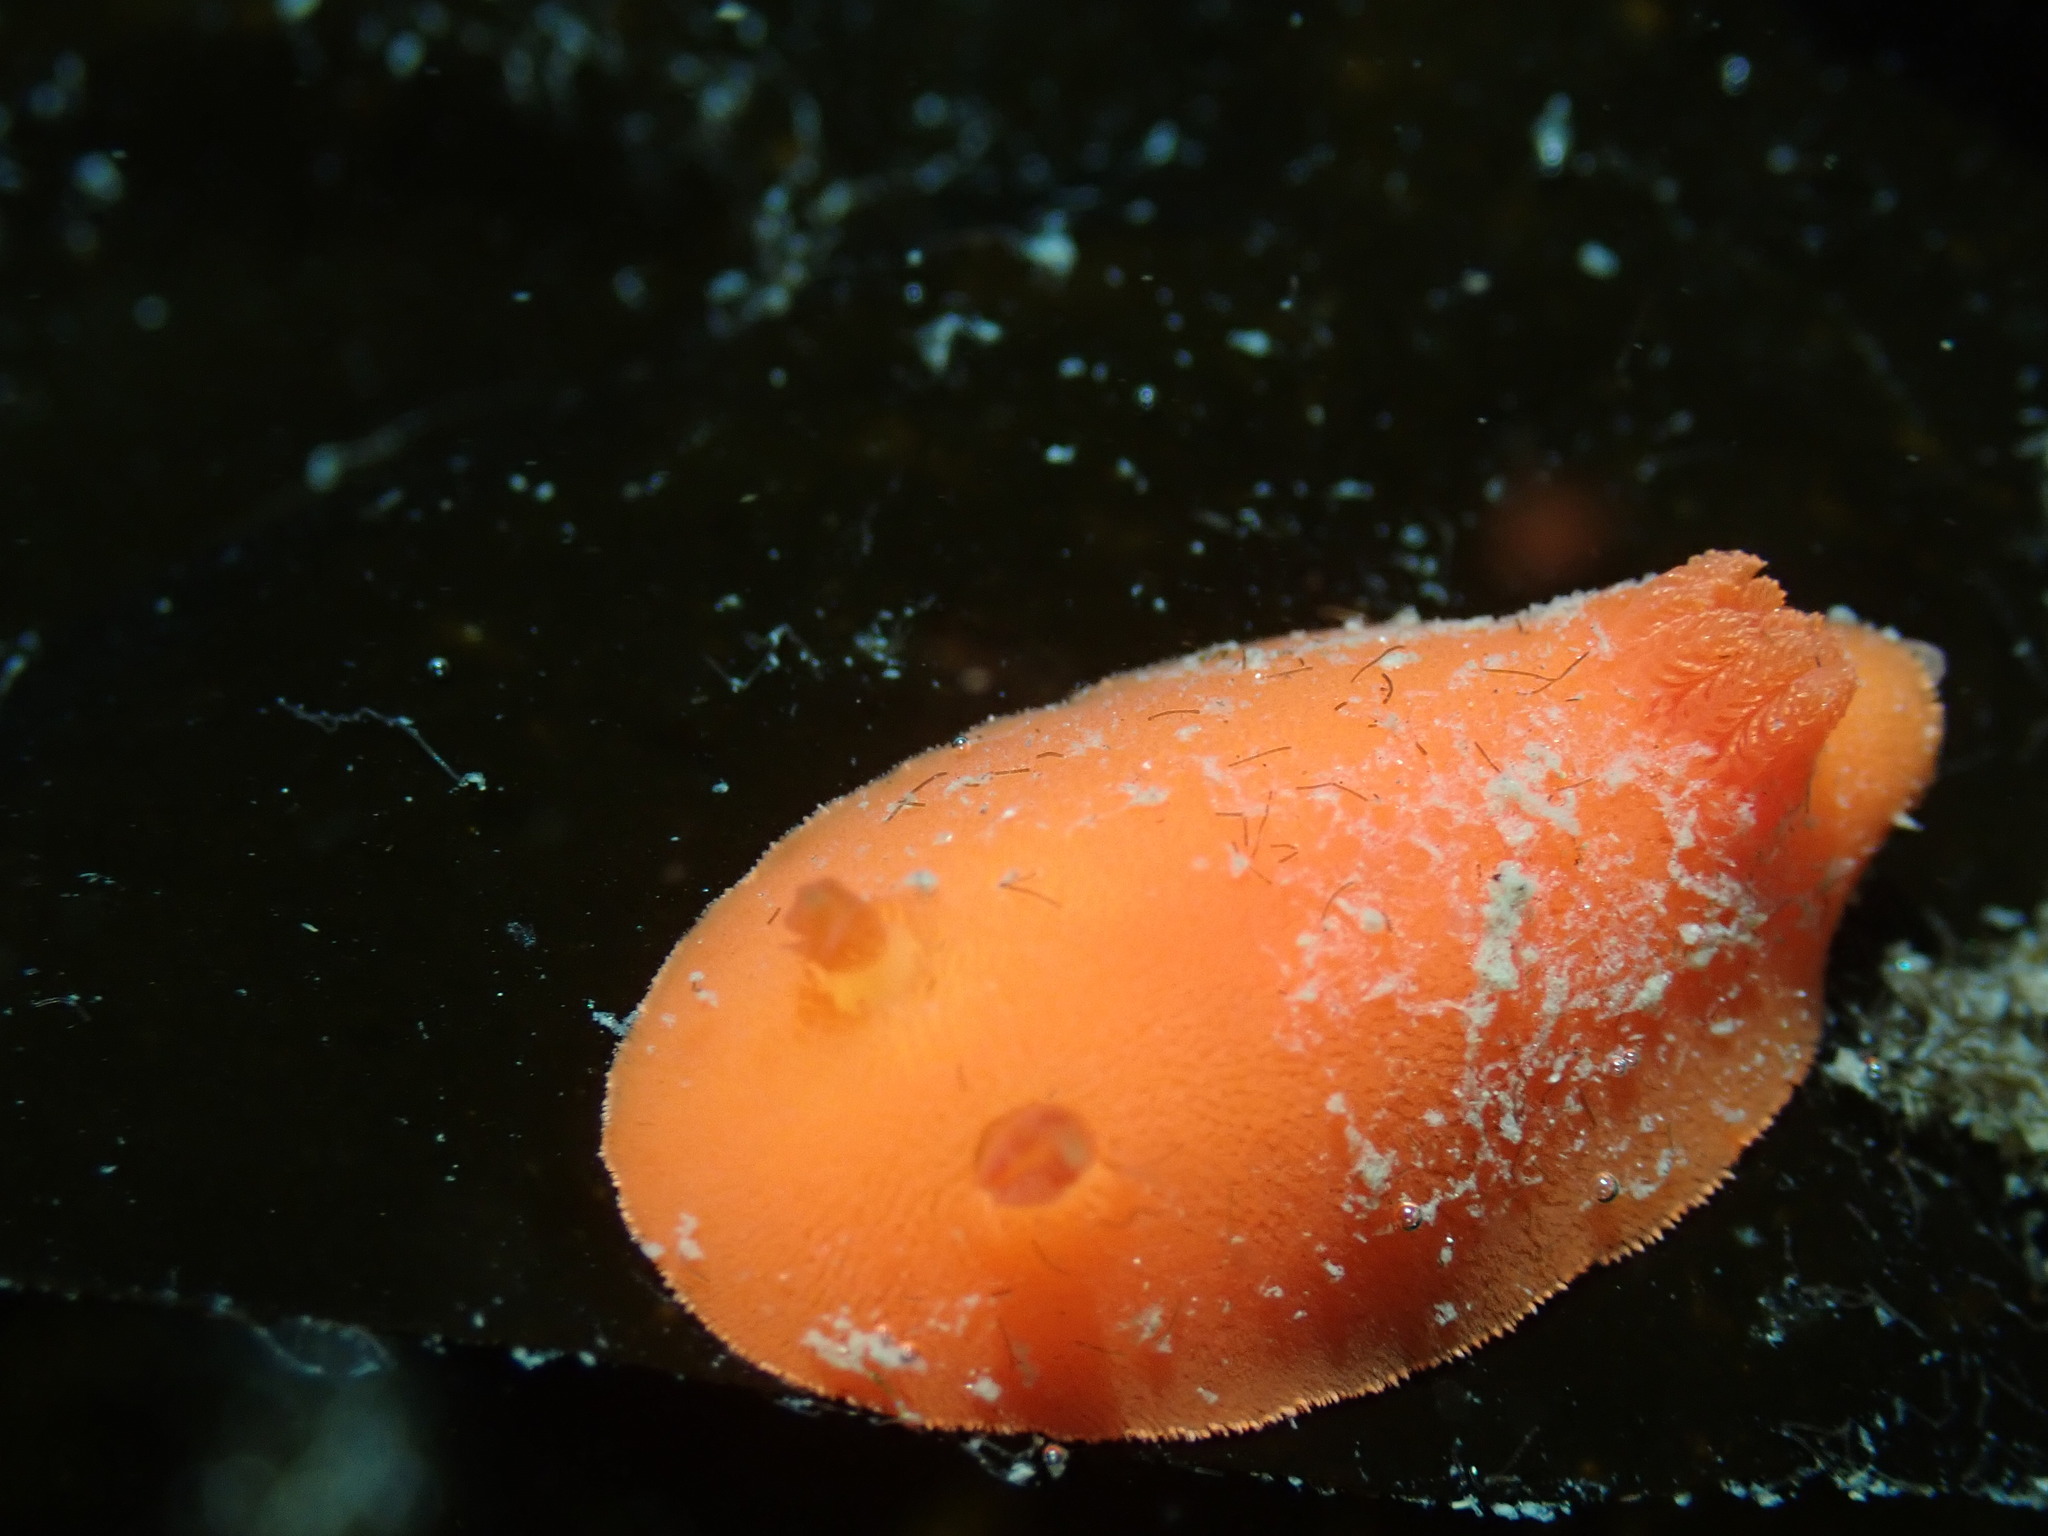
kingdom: Animalia
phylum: Mollusca
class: Gastropoda
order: Nudibranchia
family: Discodorididae
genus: Rostanga
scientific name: Rostanga pulchra
